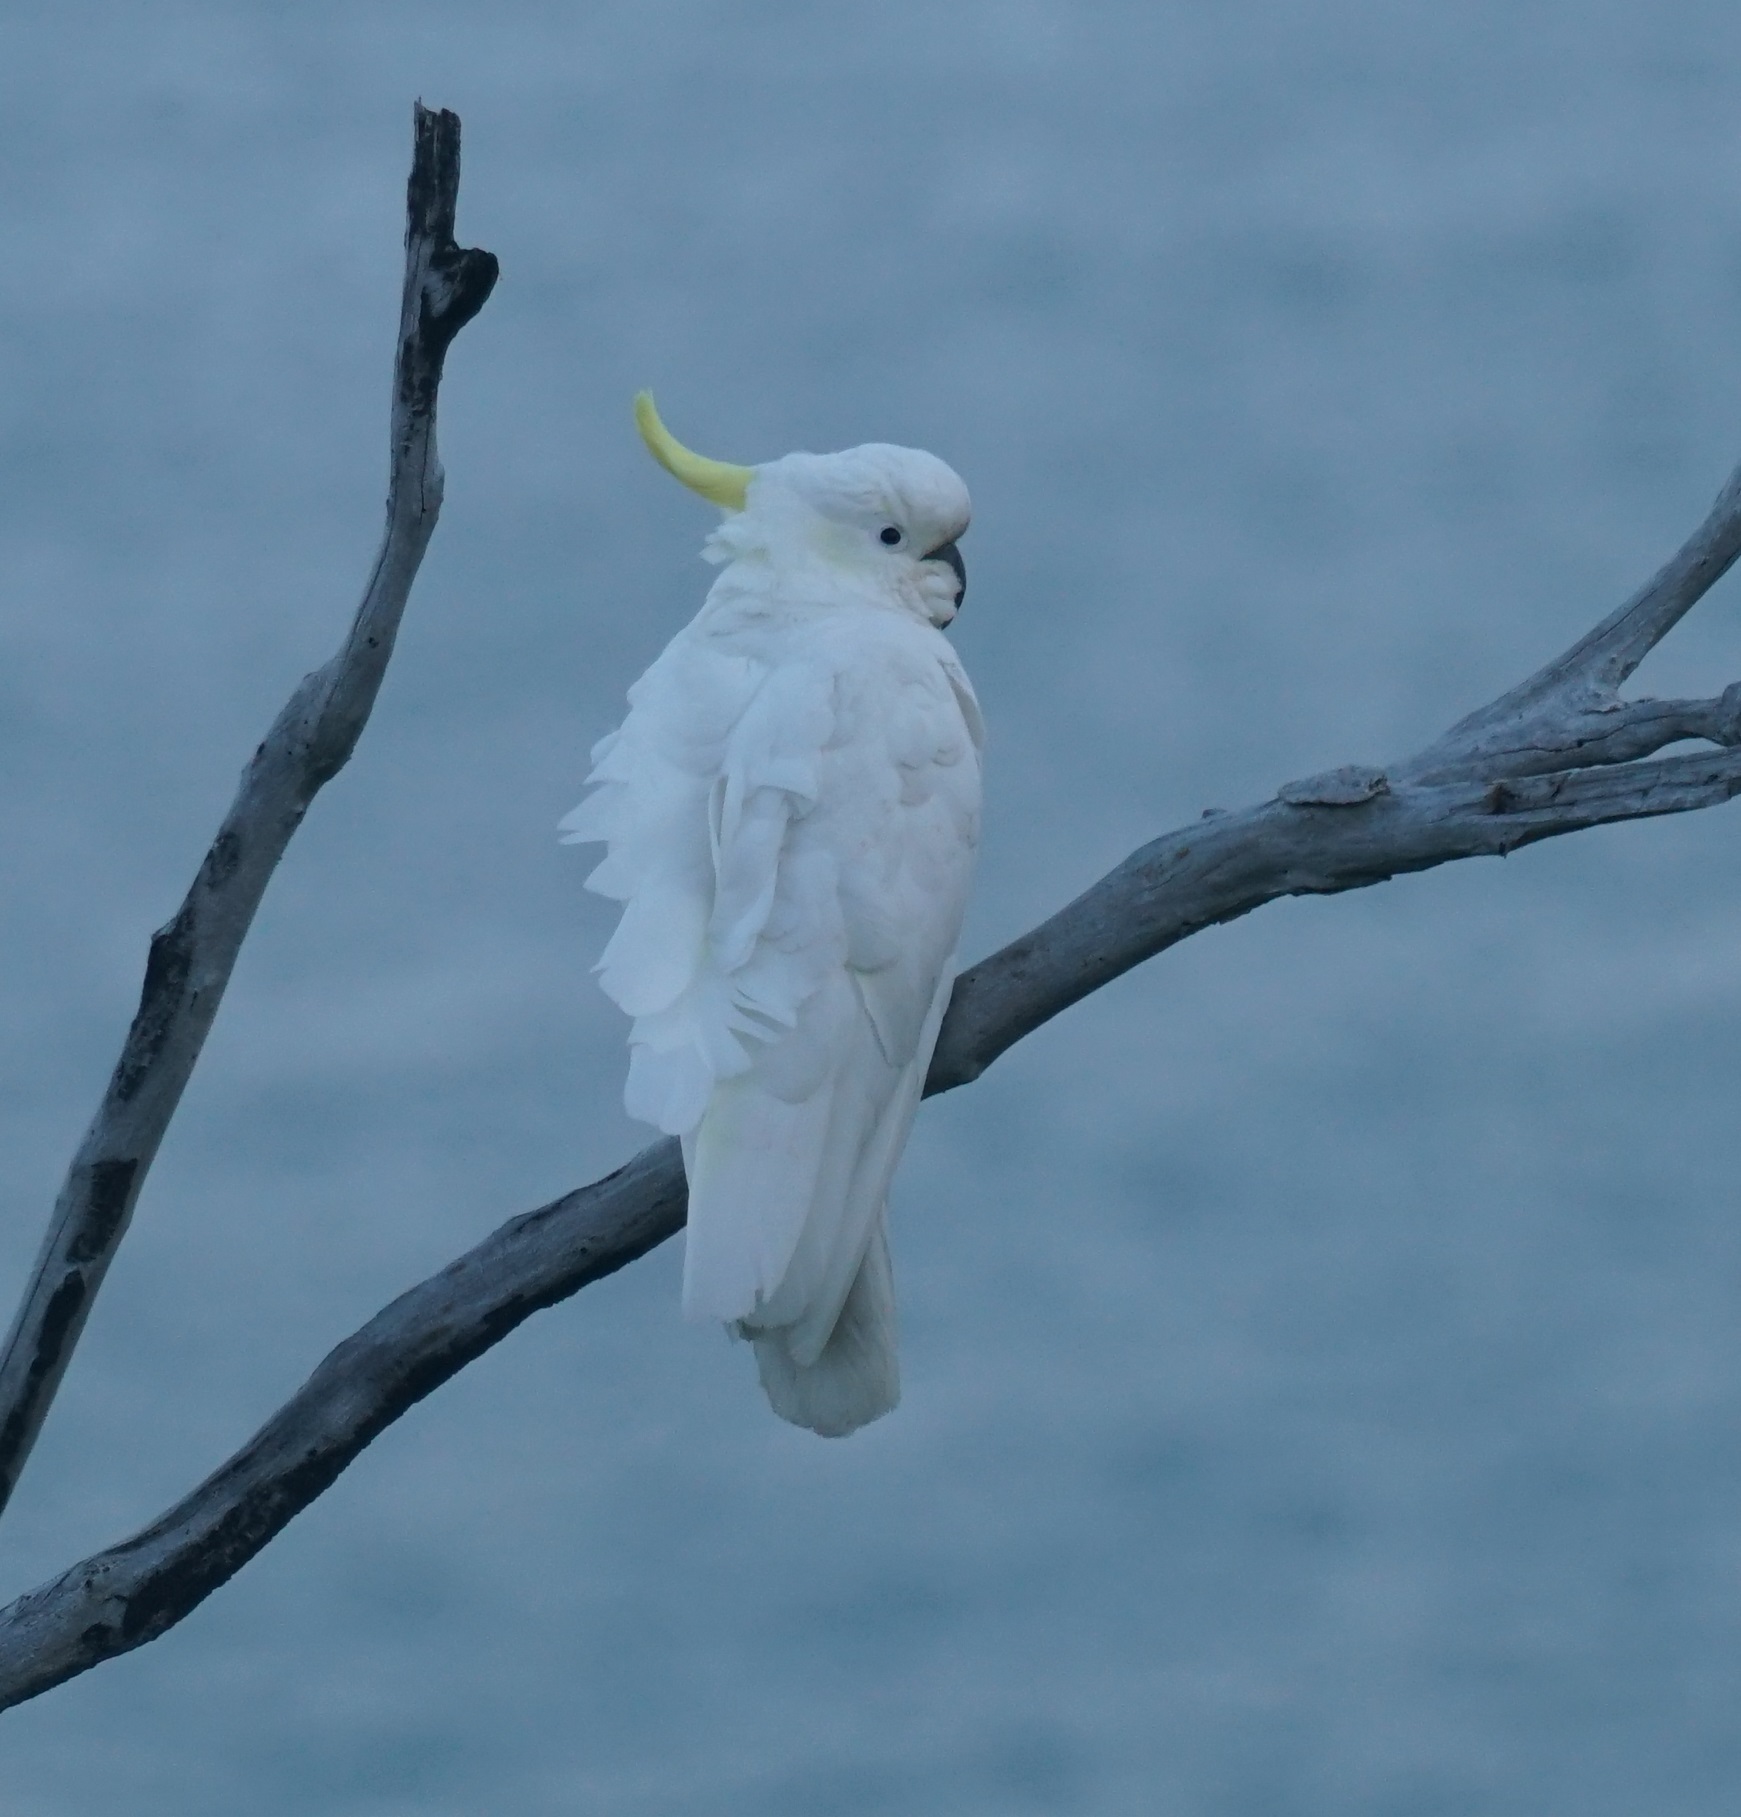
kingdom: Animalia
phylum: Chordata
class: Aves
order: Psittaciformes
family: Psittacidae
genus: Cacatua
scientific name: Cacatua galerita
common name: Sulphur-crested cockatoo
